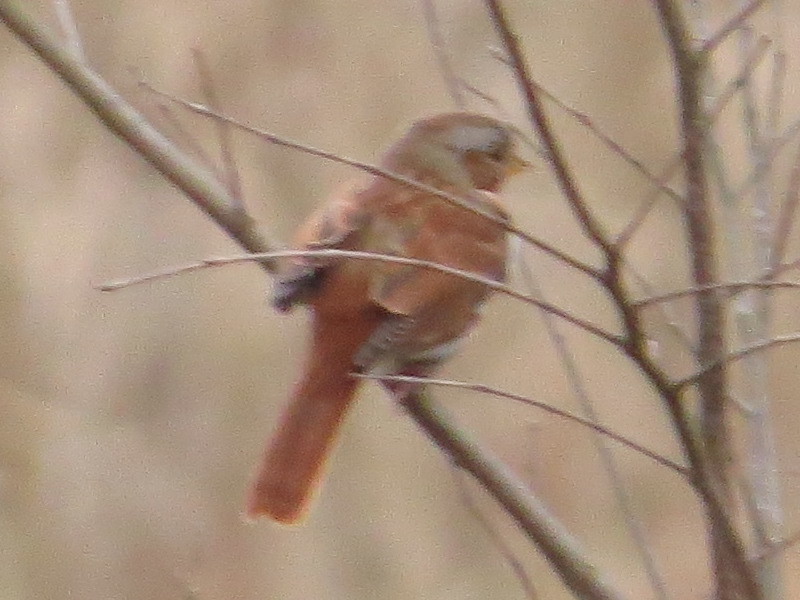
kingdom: Animalia
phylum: Chordata
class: Aves
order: Passeriformes
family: Passerellidae
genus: Passerella
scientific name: Passerella iliaca
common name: Fox sparrow
